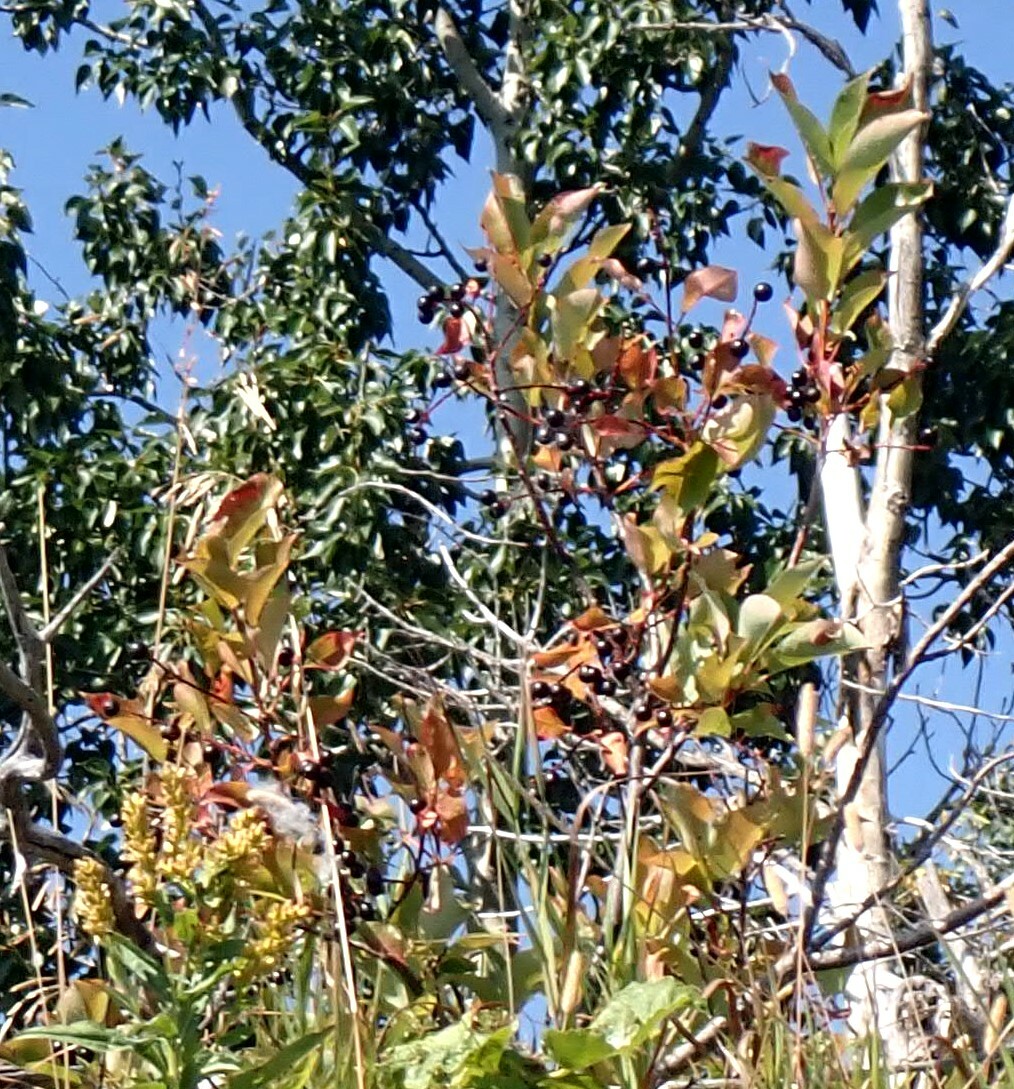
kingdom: Plantae
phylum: Tracheophyta
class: Magnoliopsida
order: Rosales
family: Rosaceae
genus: Prunus
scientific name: Prunus virginiana
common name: Chokecherry
